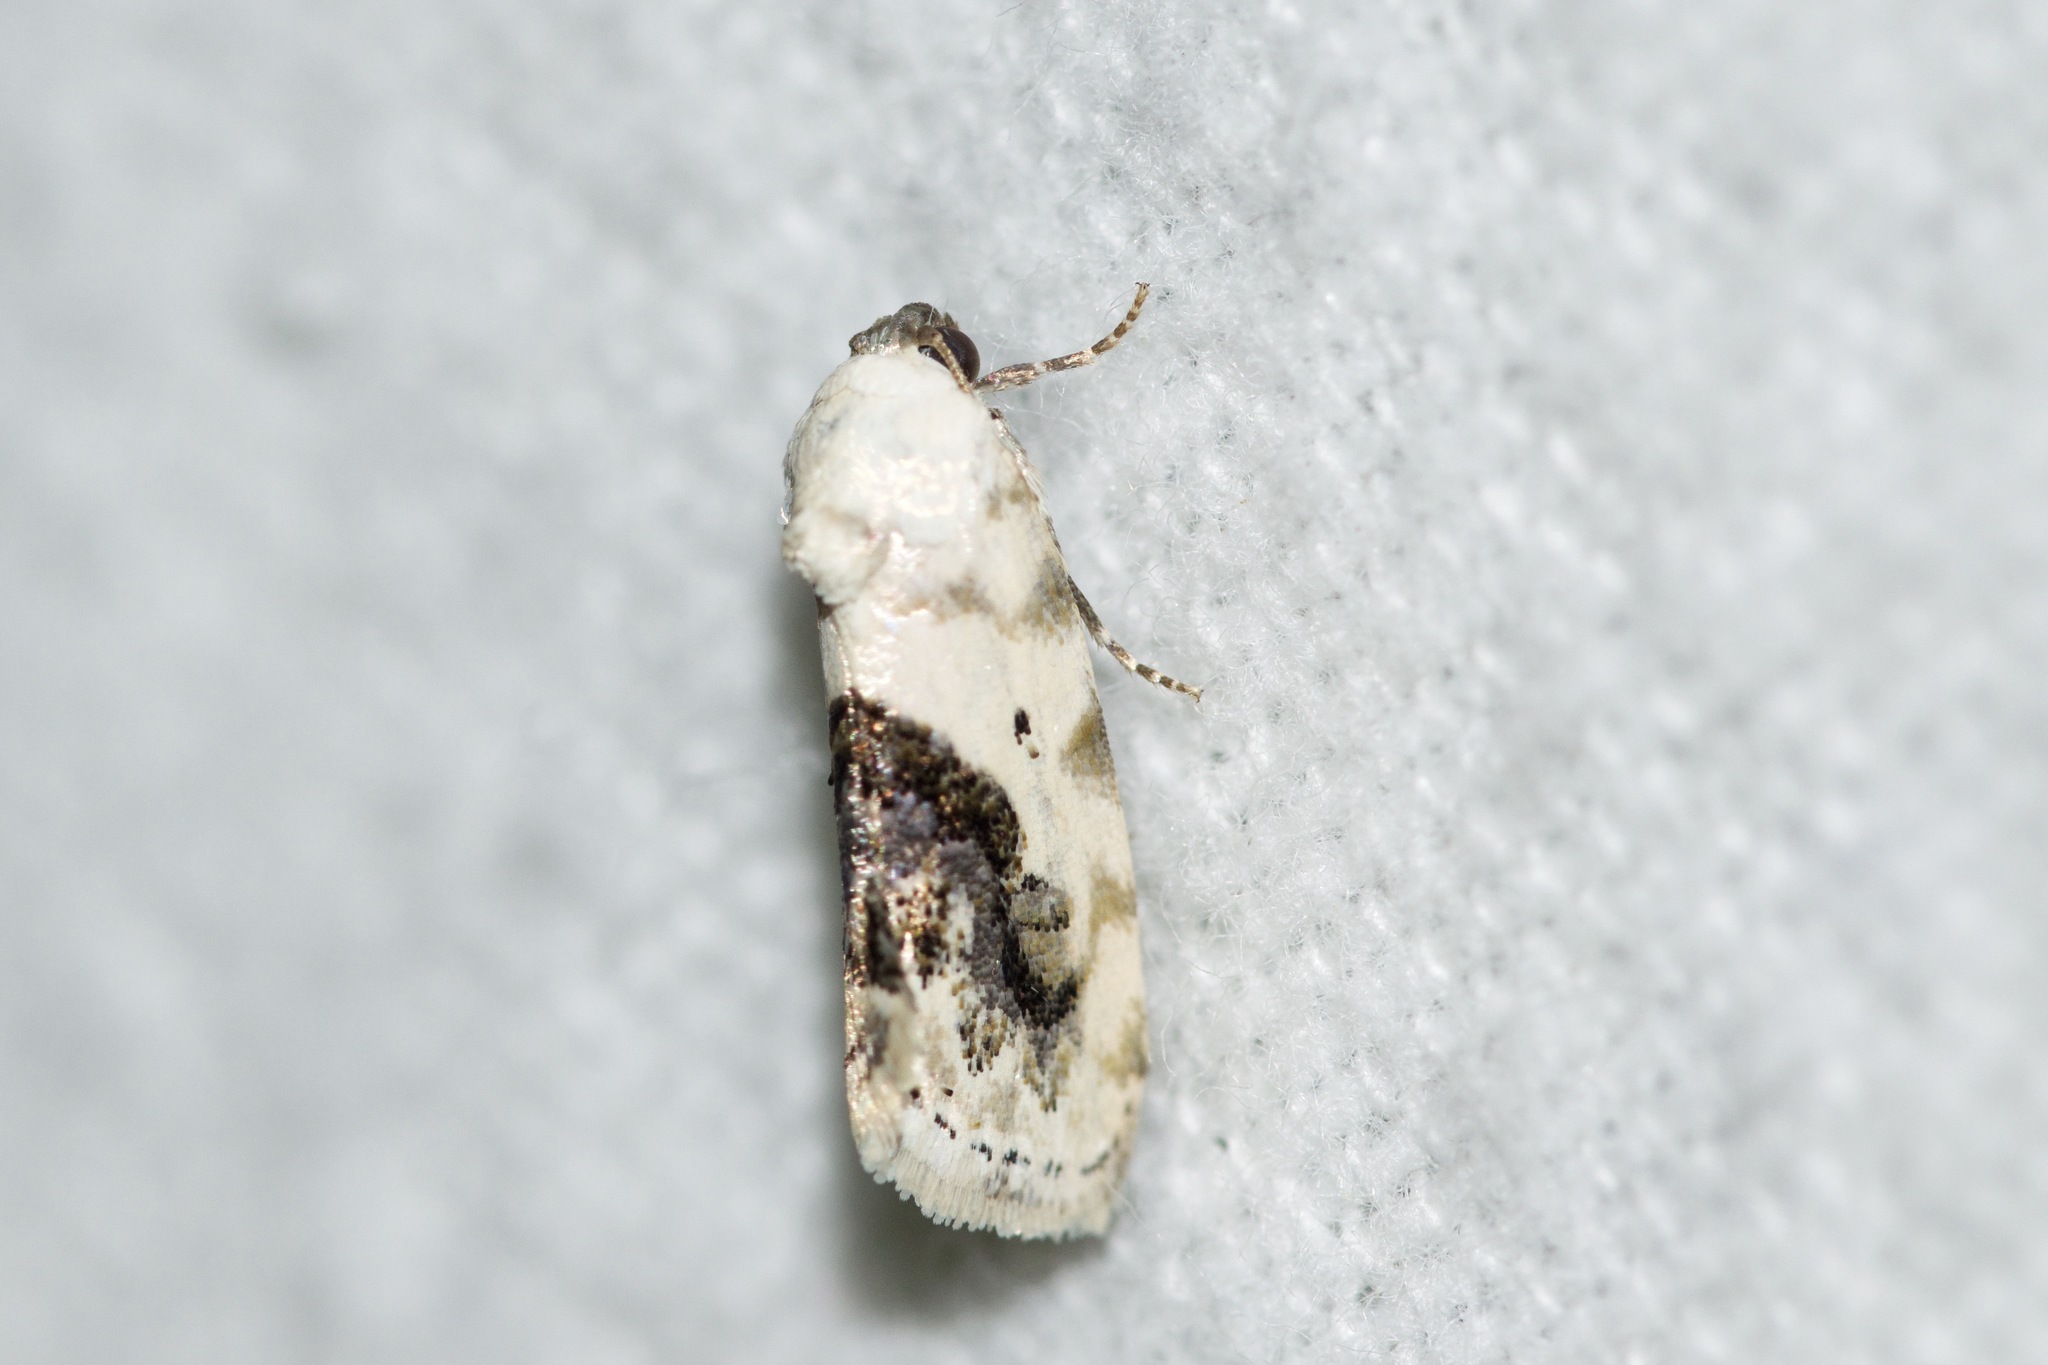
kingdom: Animalia
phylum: Arthropoda
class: Insecta
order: Lepidoptera
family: Noctuidae
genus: Acontia
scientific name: Acontia erastrioides
